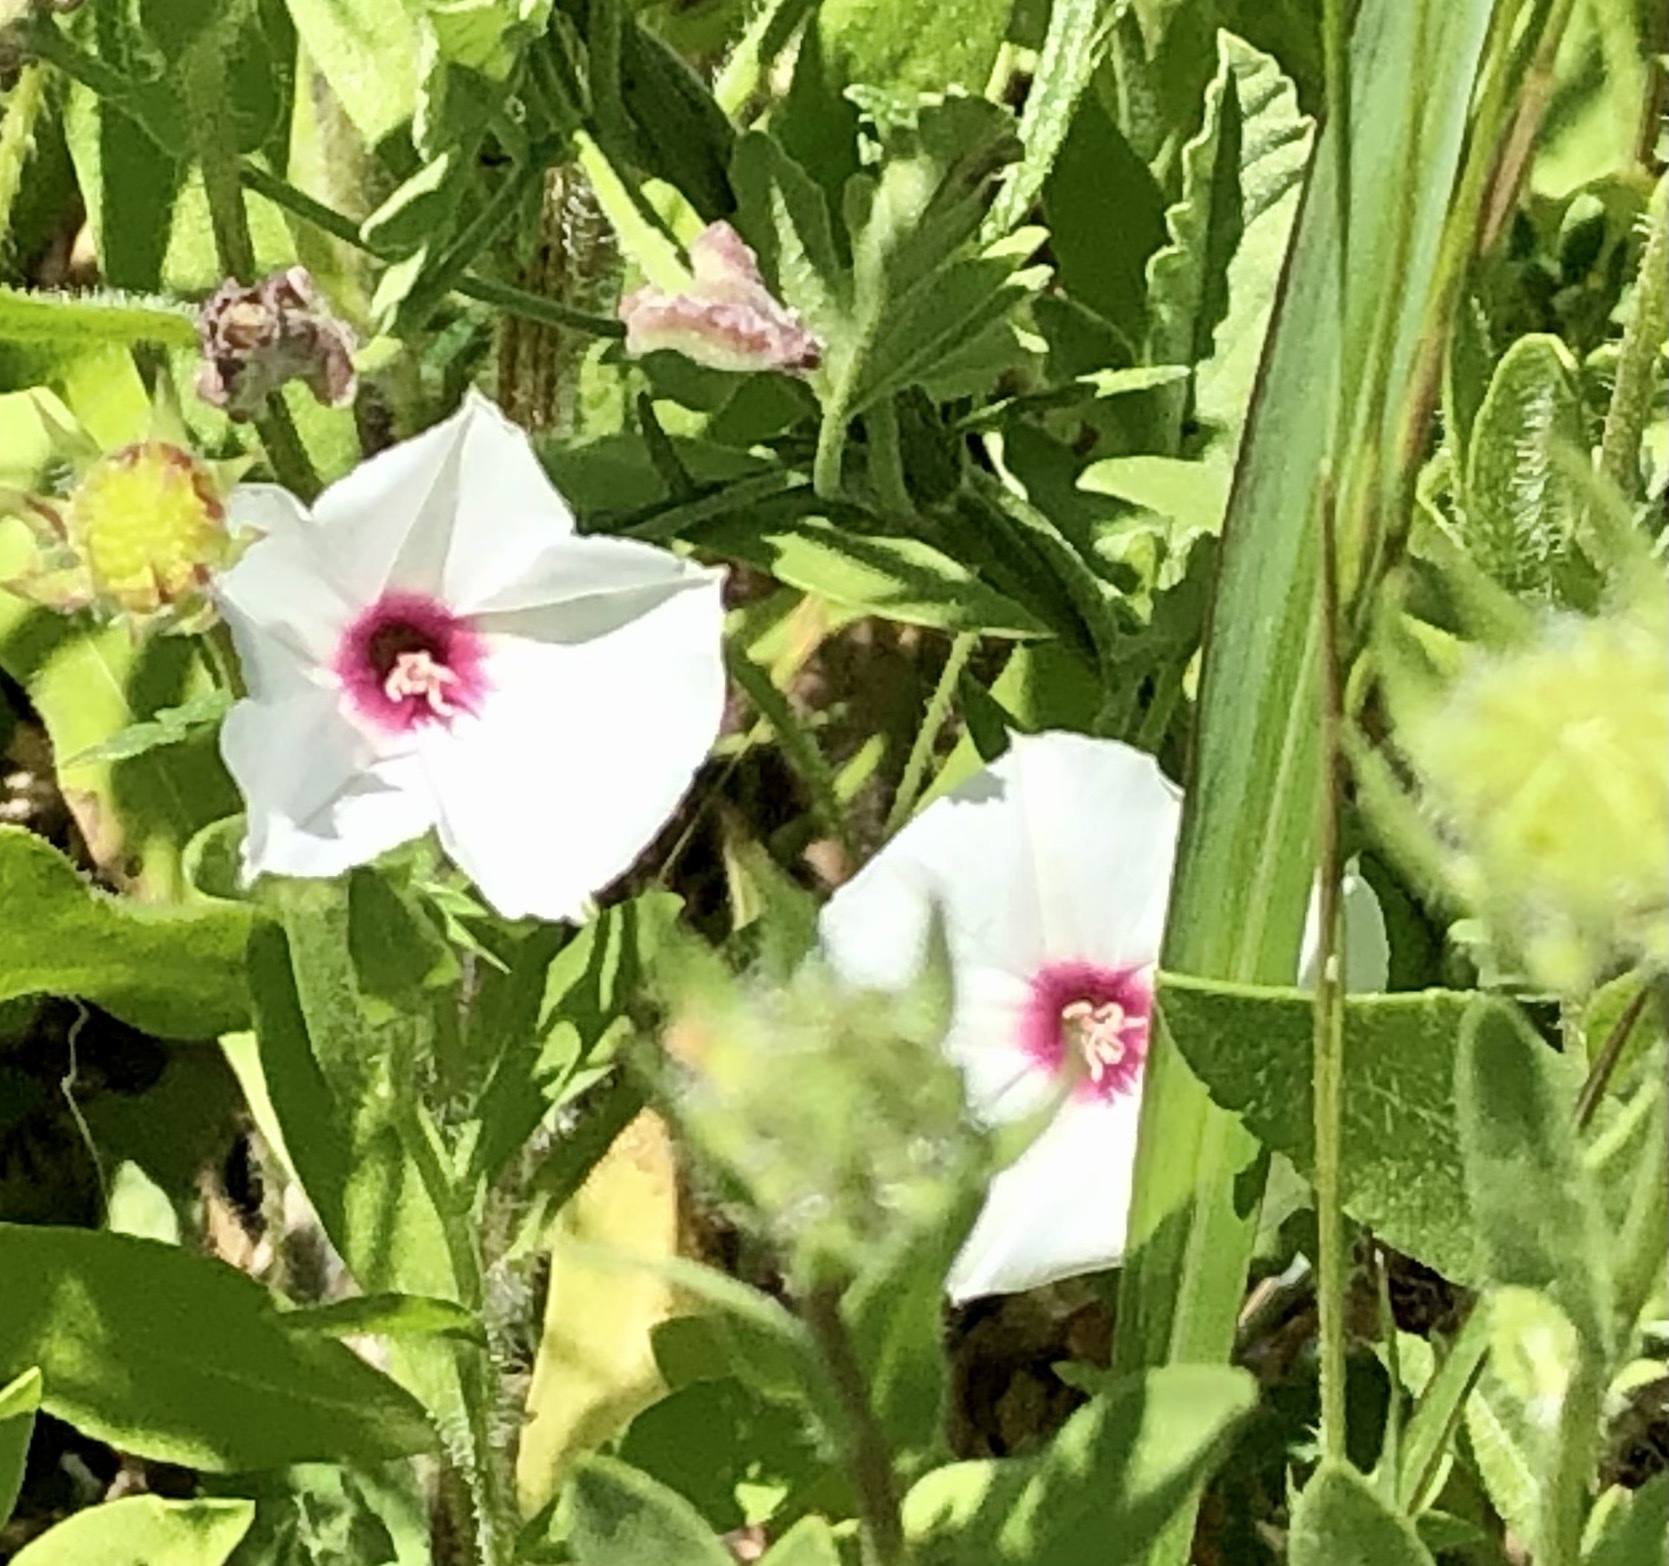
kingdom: Plantae
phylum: Tracheophyta
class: Magnoliopsida
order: Solanales
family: Convolvulaceae
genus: Convolvulus
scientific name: Convolvulus equitans
